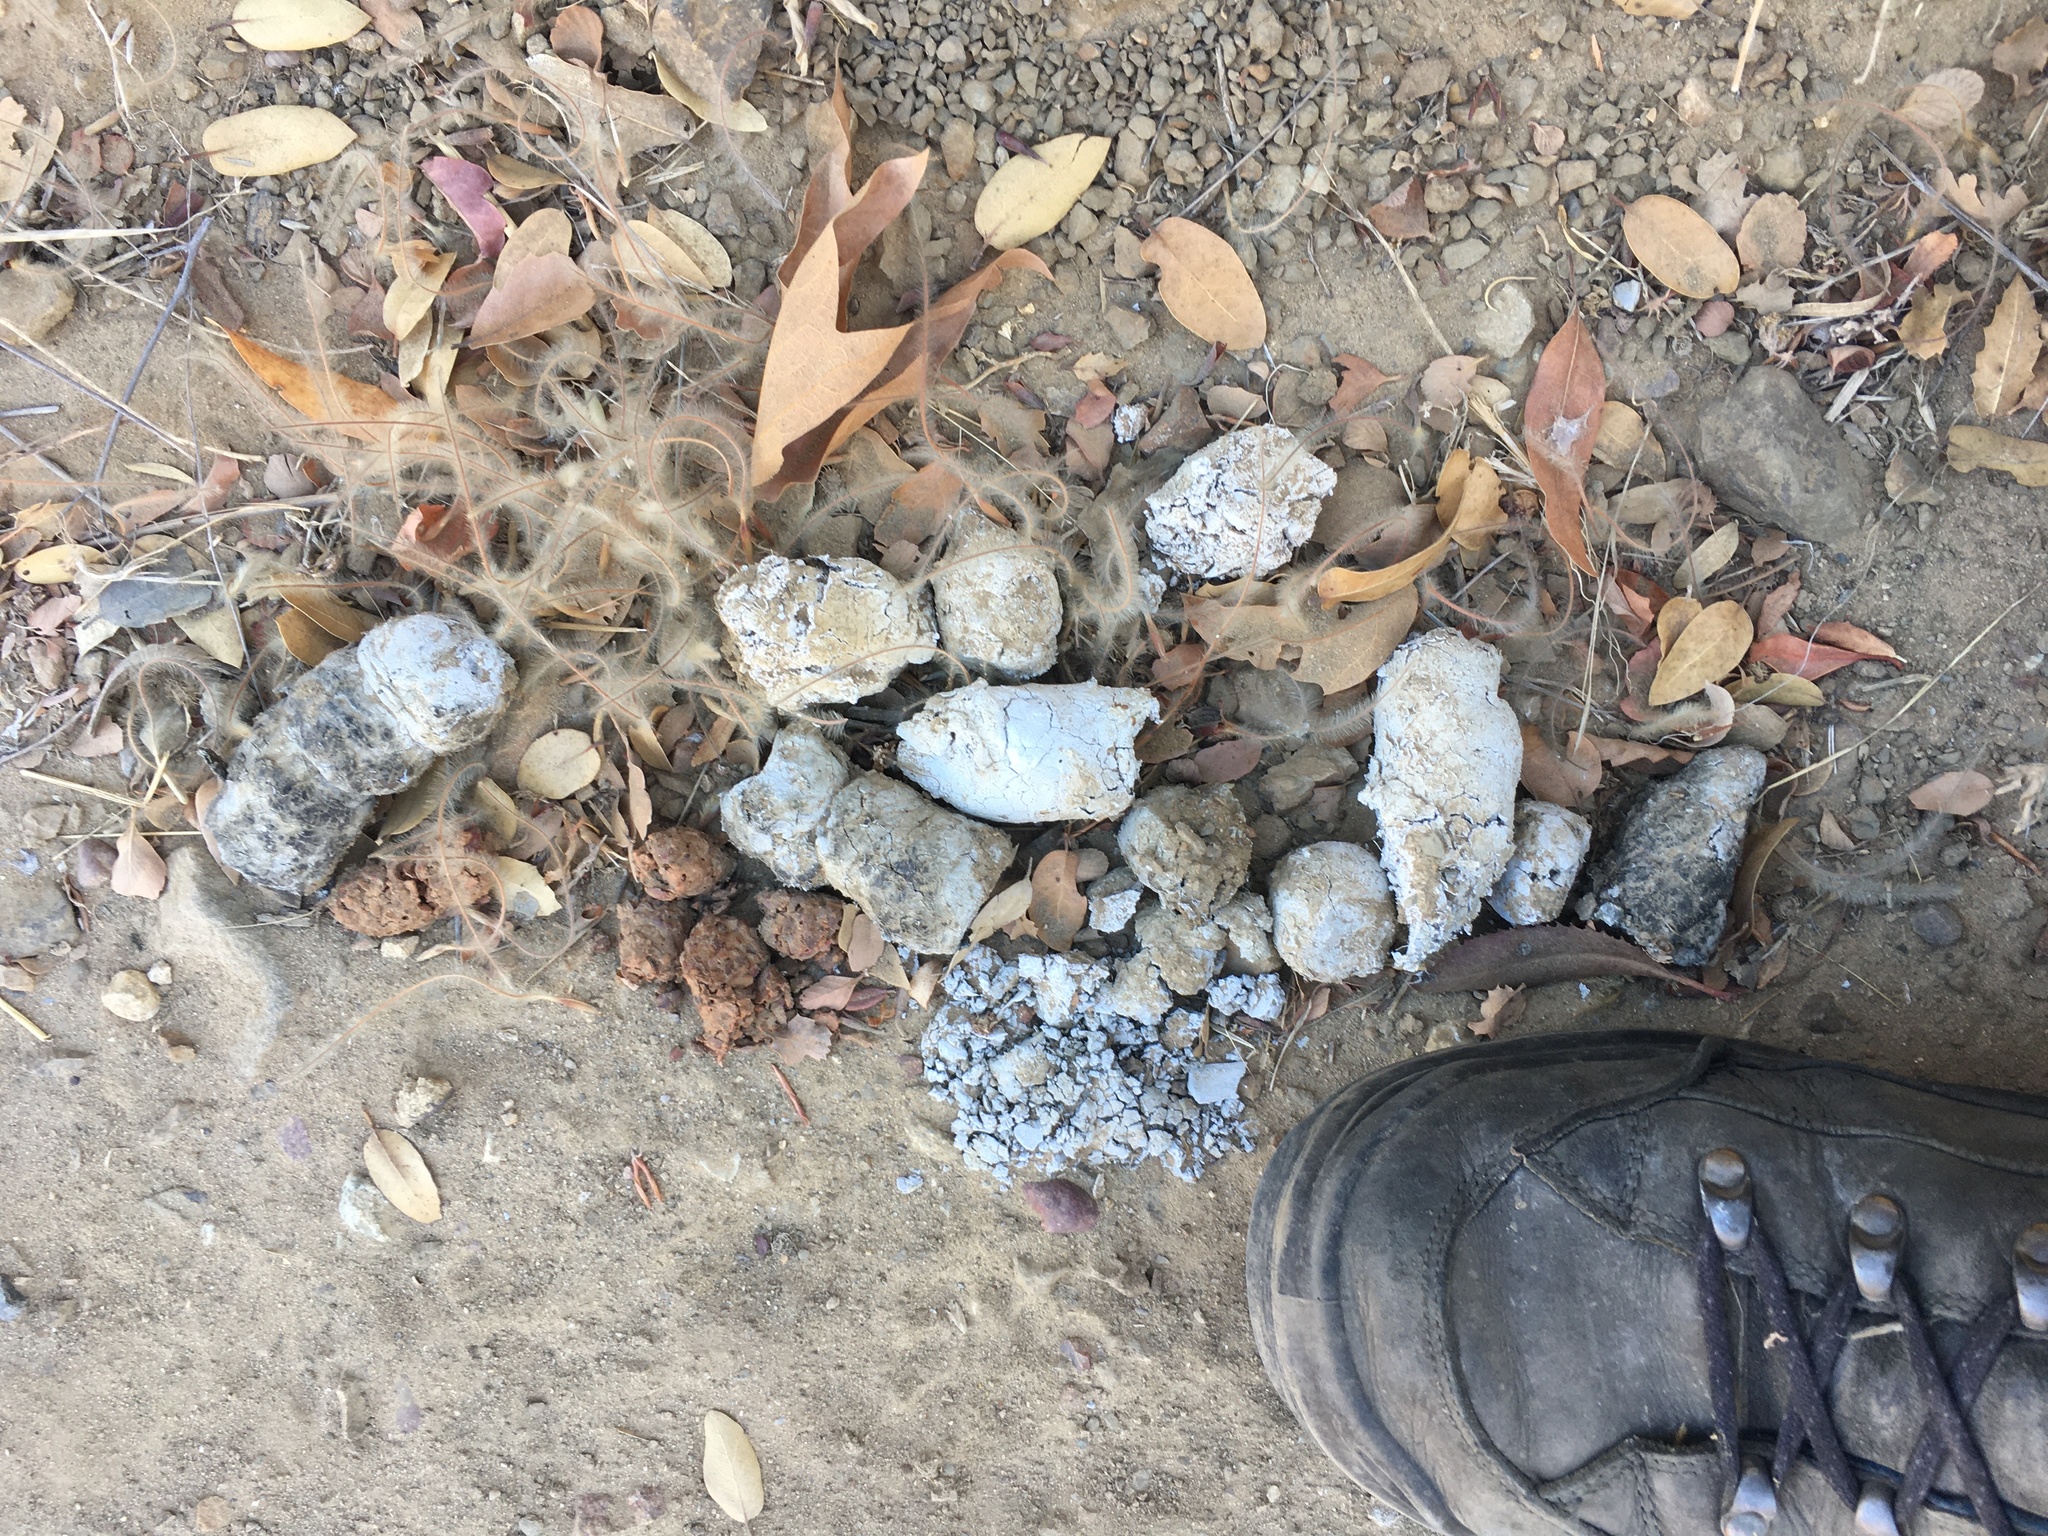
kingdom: Animalia
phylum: Chordata
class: Mammalia
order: Carnivora
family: Felidae
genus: Puma
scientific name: Puma concolor
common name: Puma
